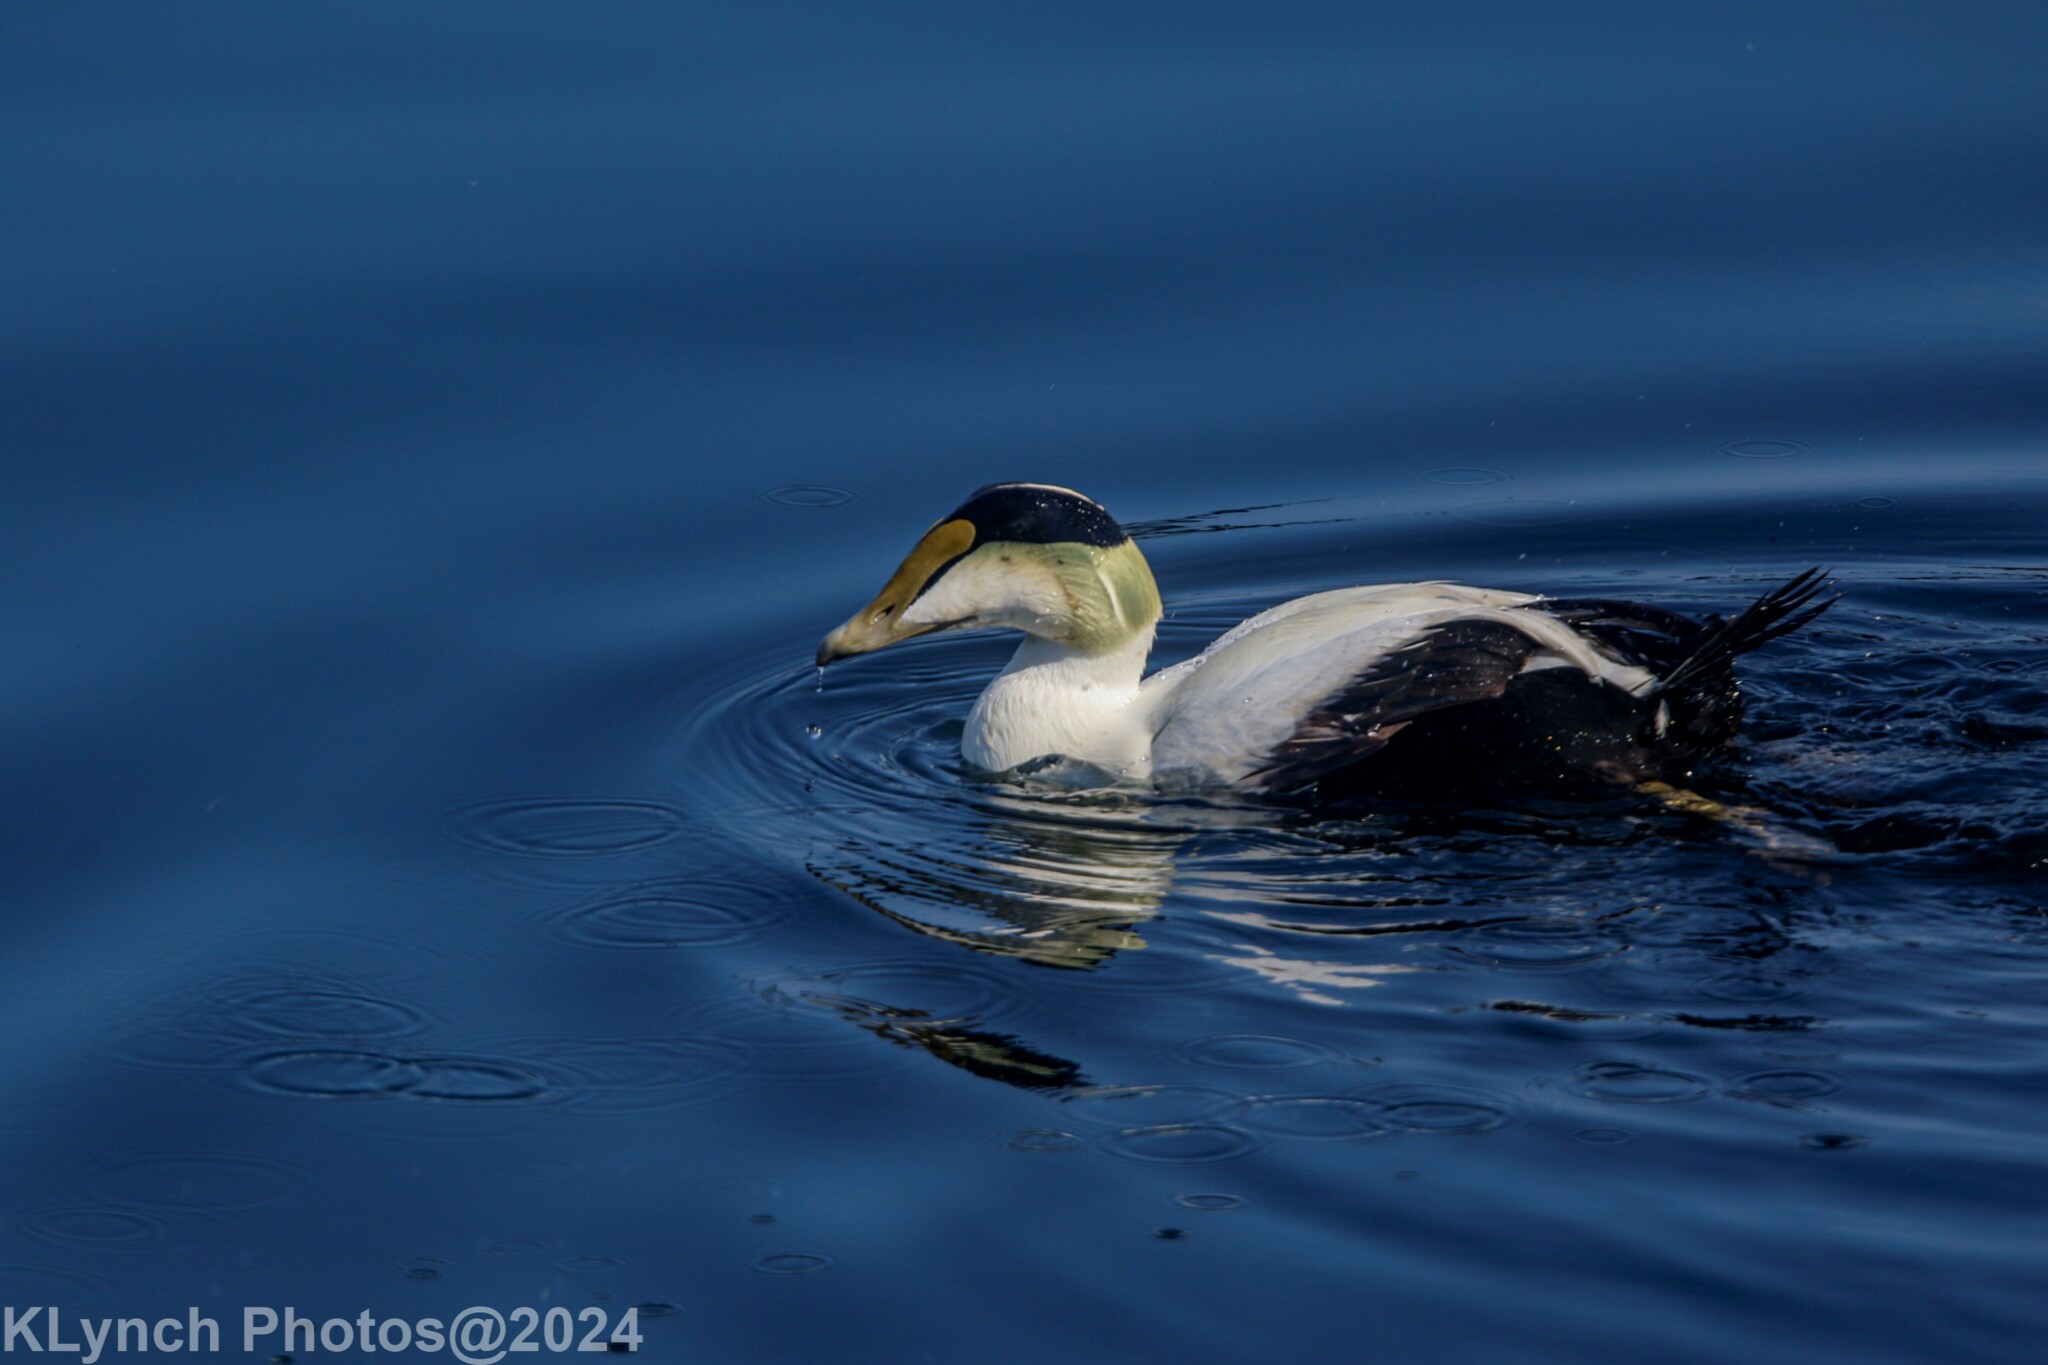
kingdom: Animalia
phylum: Chordata
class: Aves
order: Anseriformes
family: Anatidae
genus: Somateria
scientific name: Somateria mollissima
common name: Common eider
